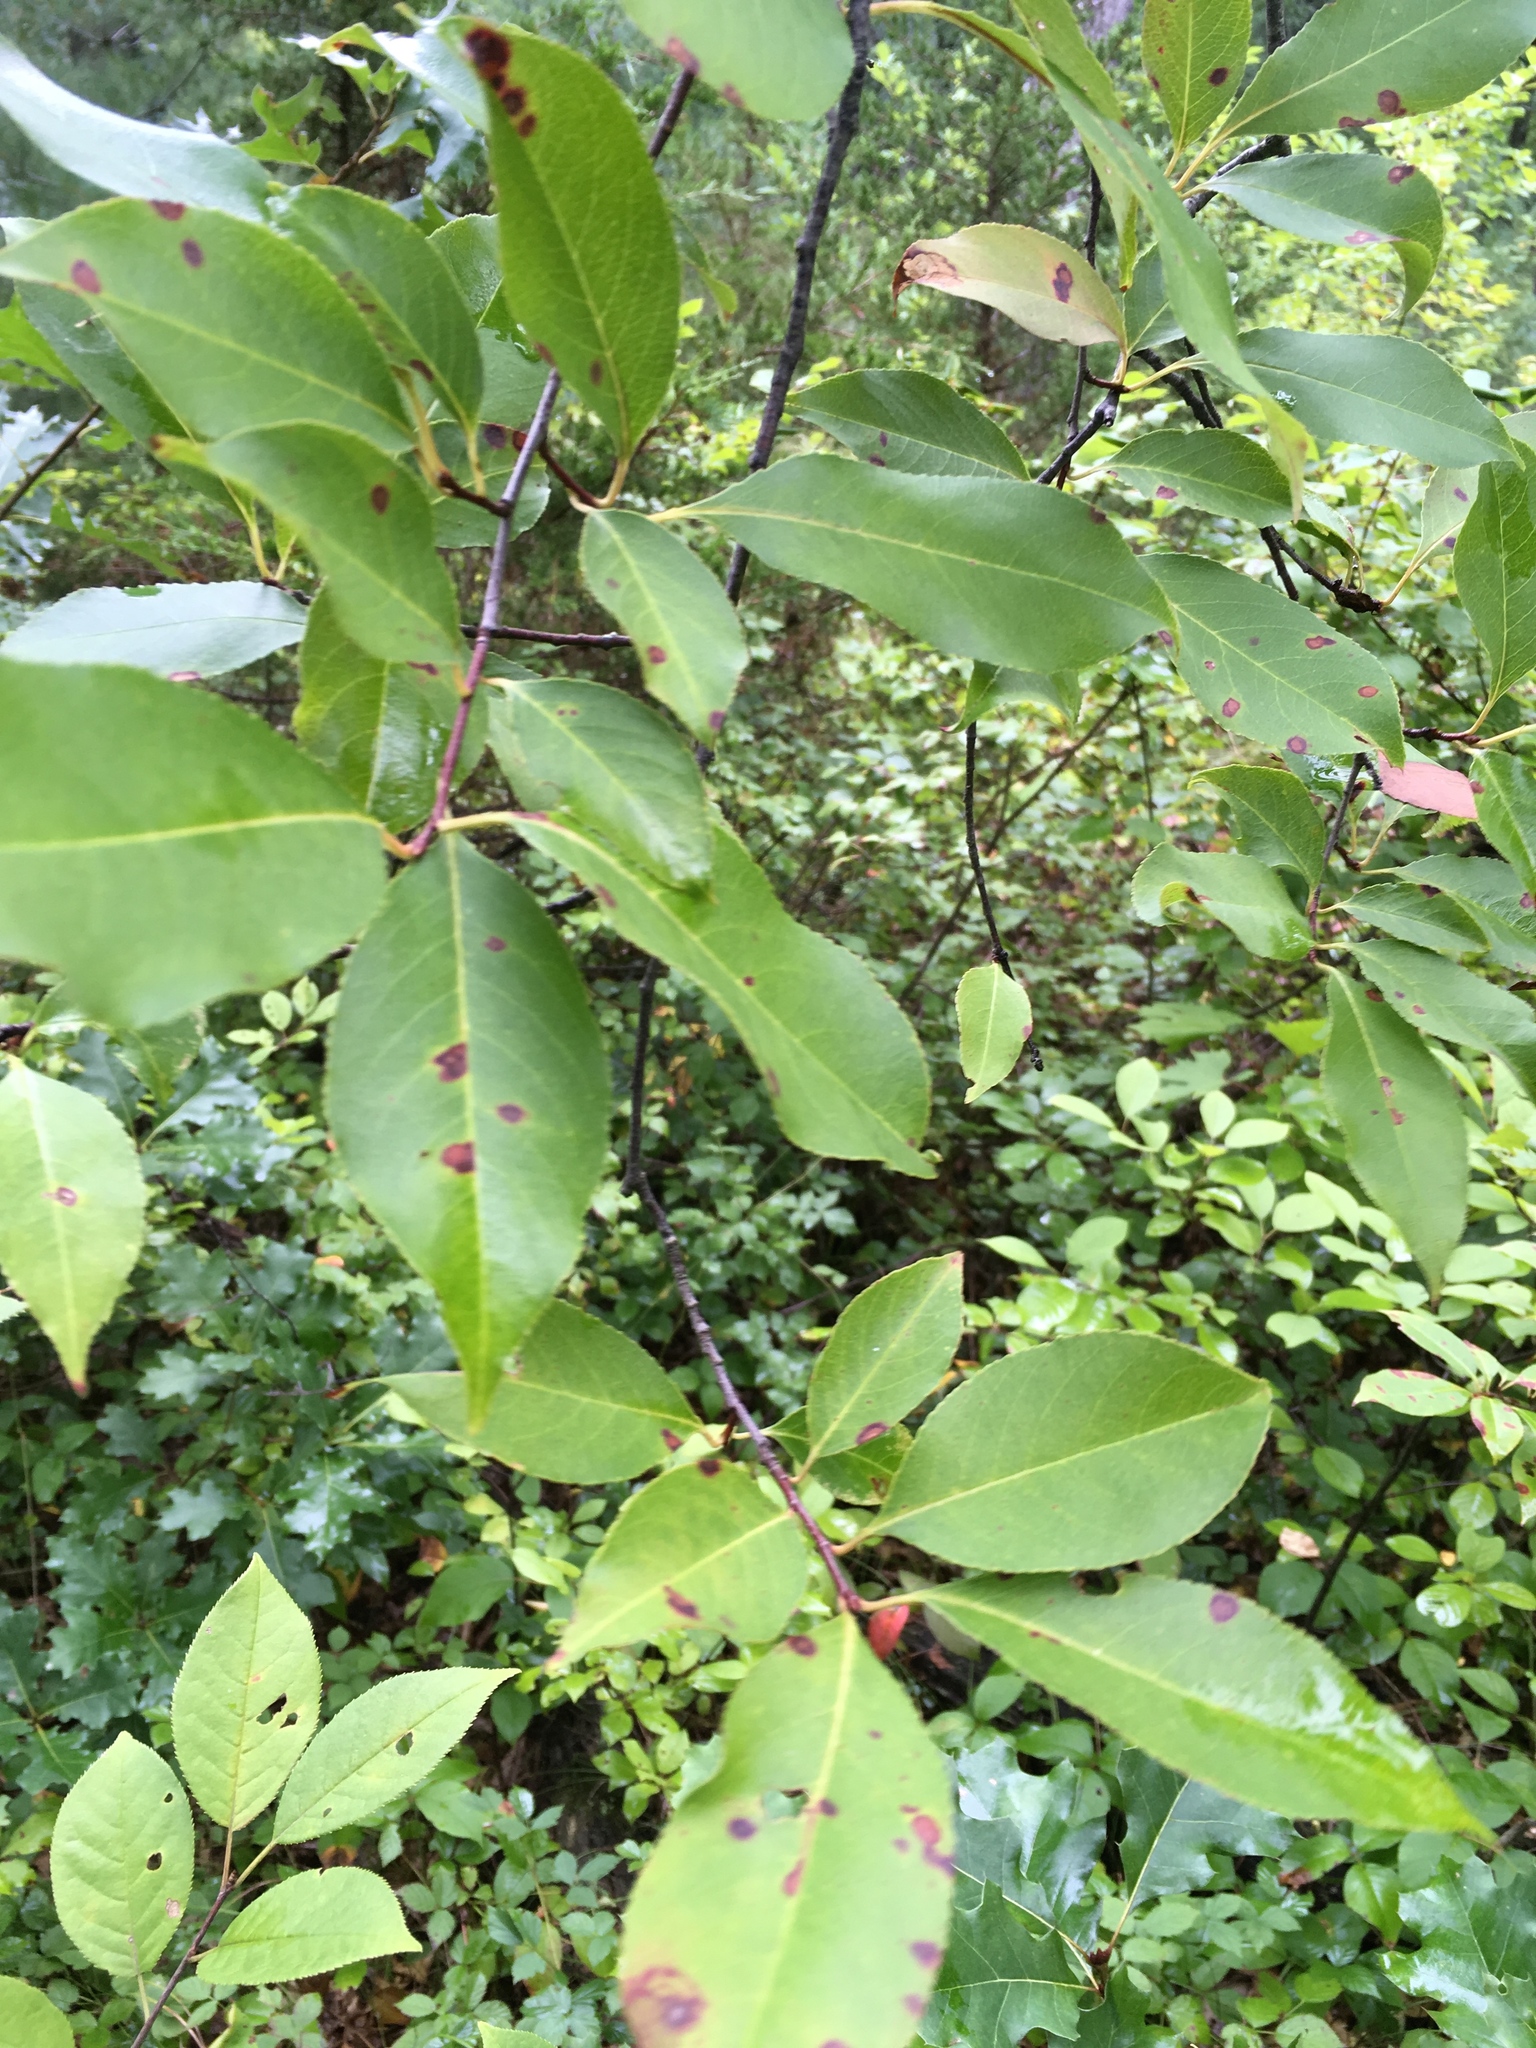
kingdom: Plantae
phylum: Tracheophyta
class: Magnoliopsida
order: Rosales
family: Rosaceae
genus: Prunus
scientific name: Prunus serotina
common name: Black cherry
